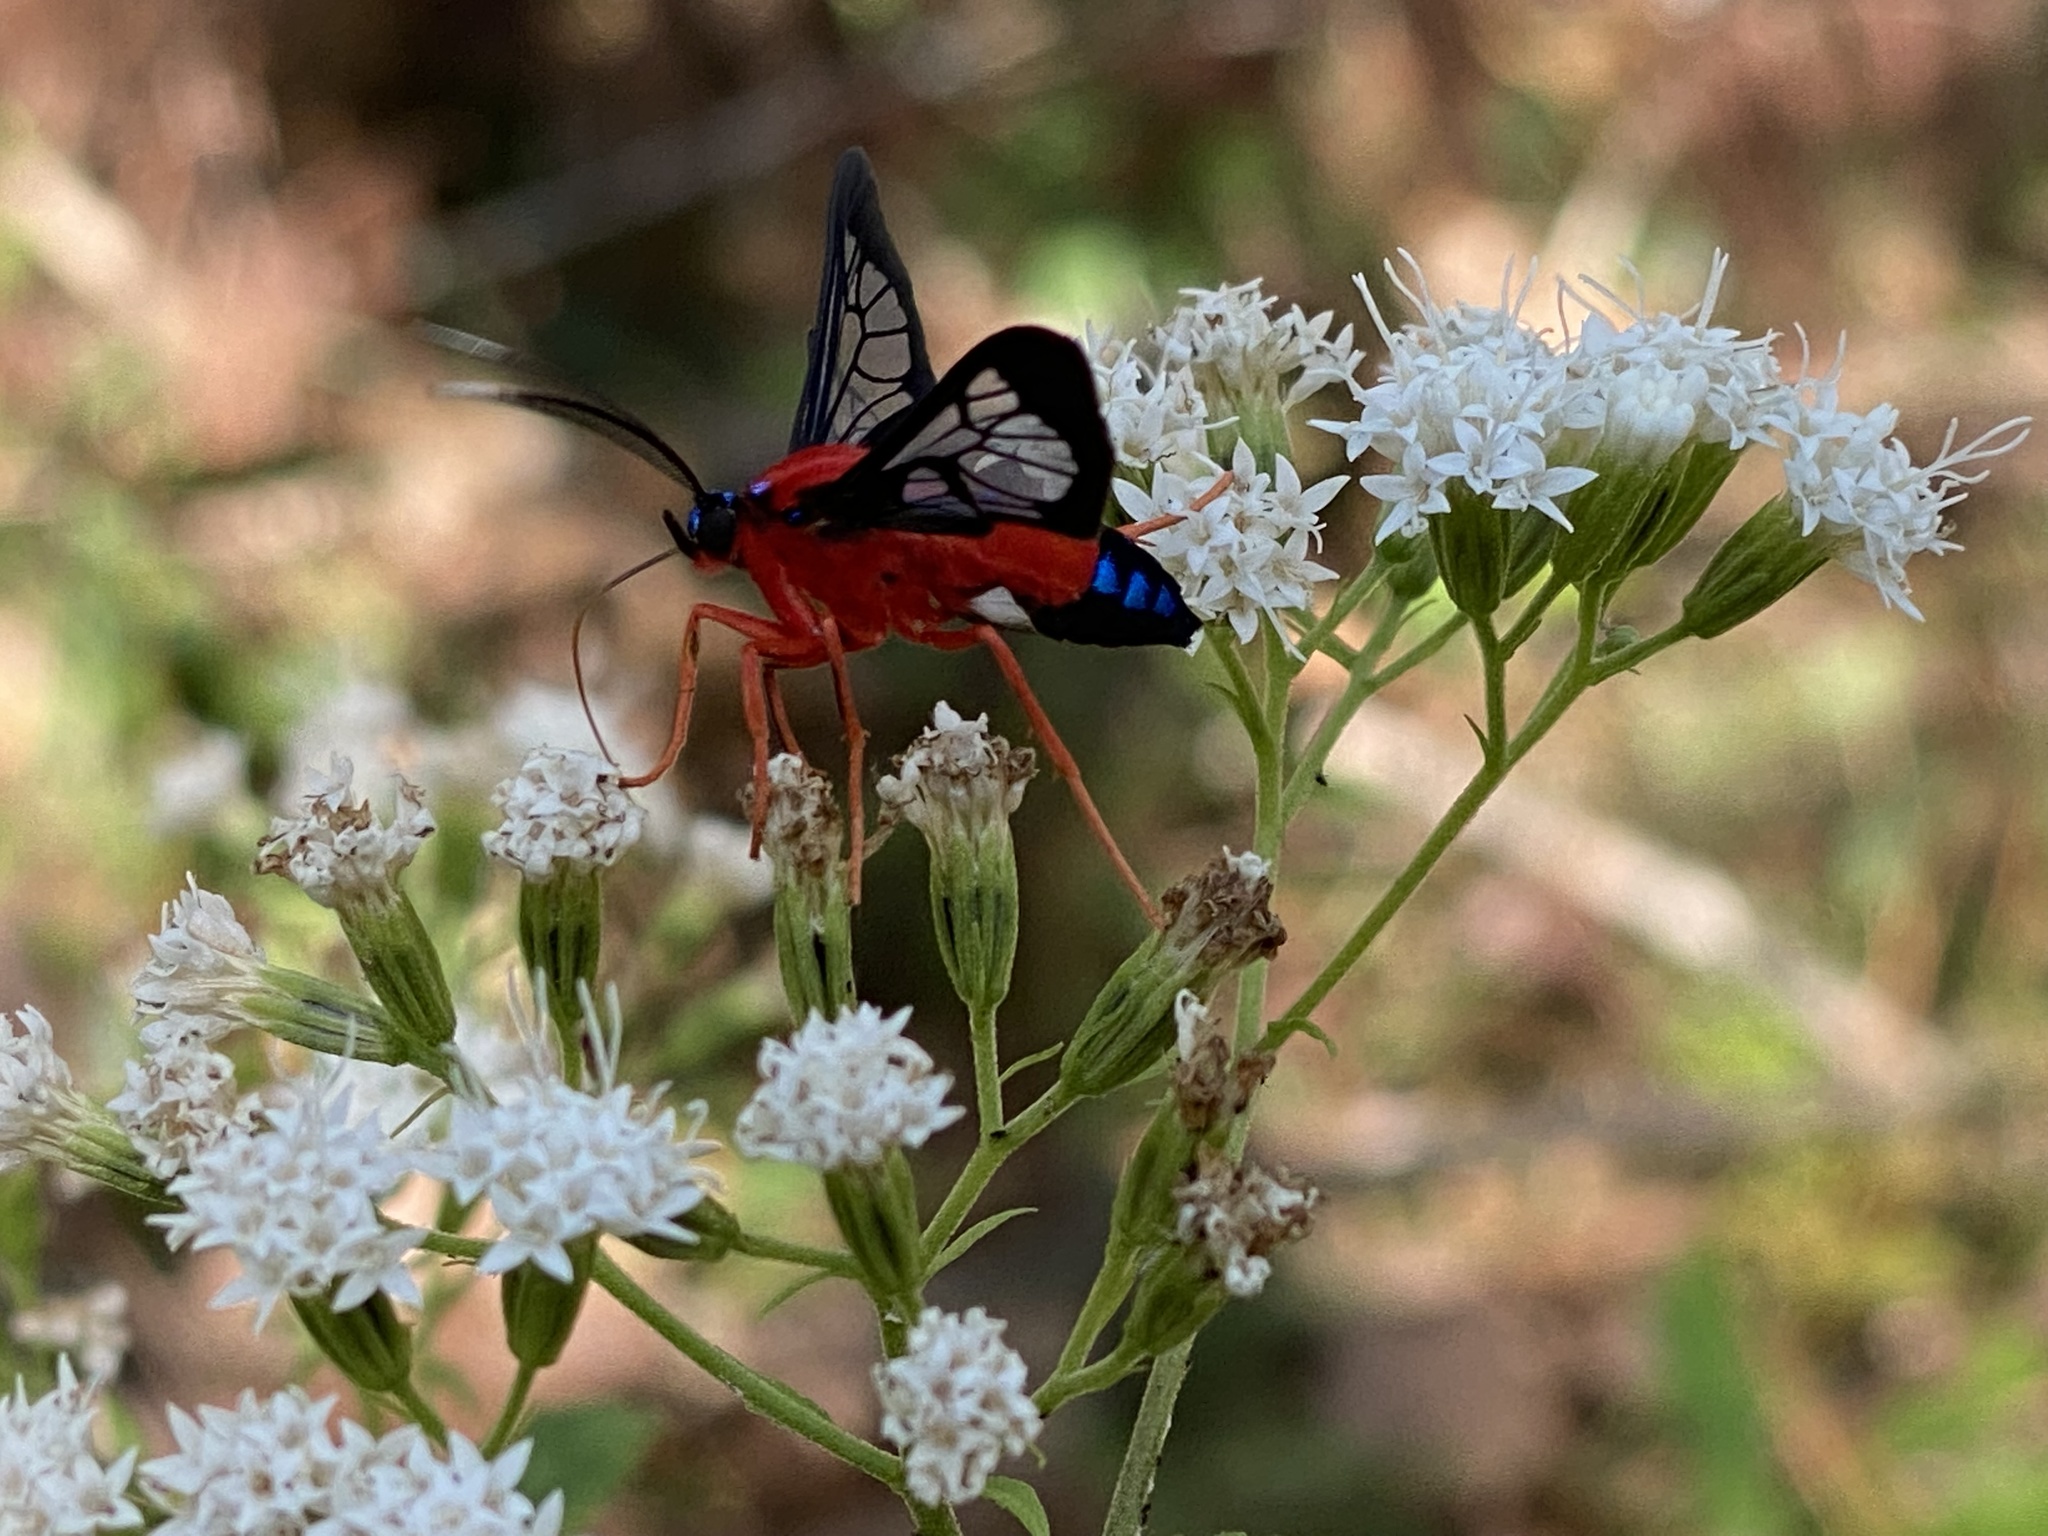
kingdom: Animalia
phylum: Arthropoda
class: Insecta
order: Lepidoptera
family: Erebidae
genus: Cosmosoma
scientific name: Cosmosoma myrodora
